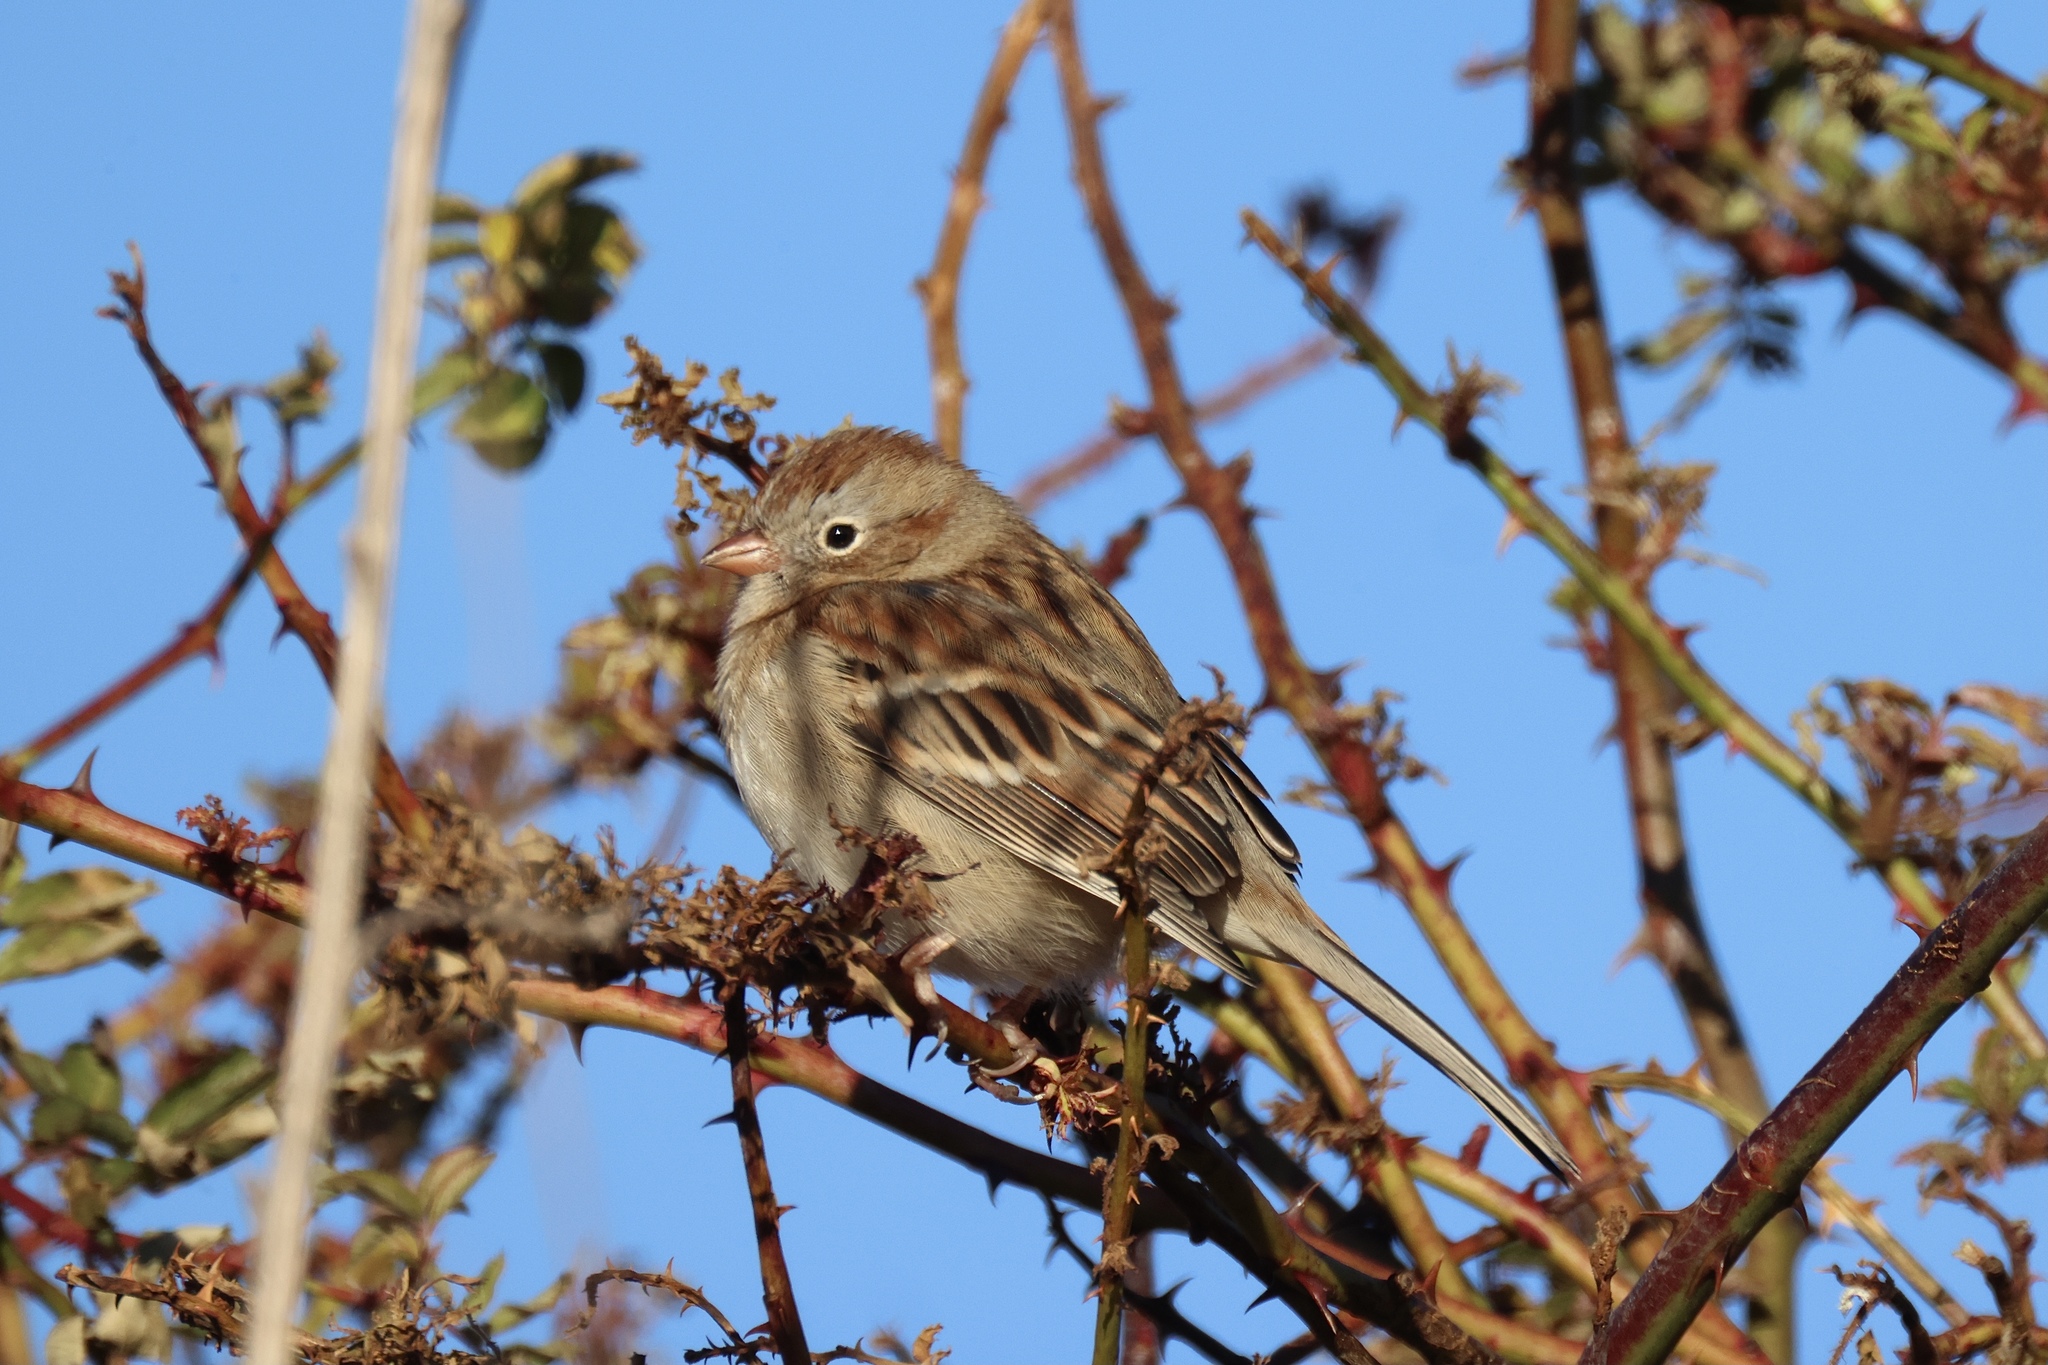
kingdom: Animalia
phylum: Chordata
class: Aves
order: Passeriformes
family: Passerellidae
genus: Spizella
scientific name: Spizella pusilla
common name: Field sparrow
